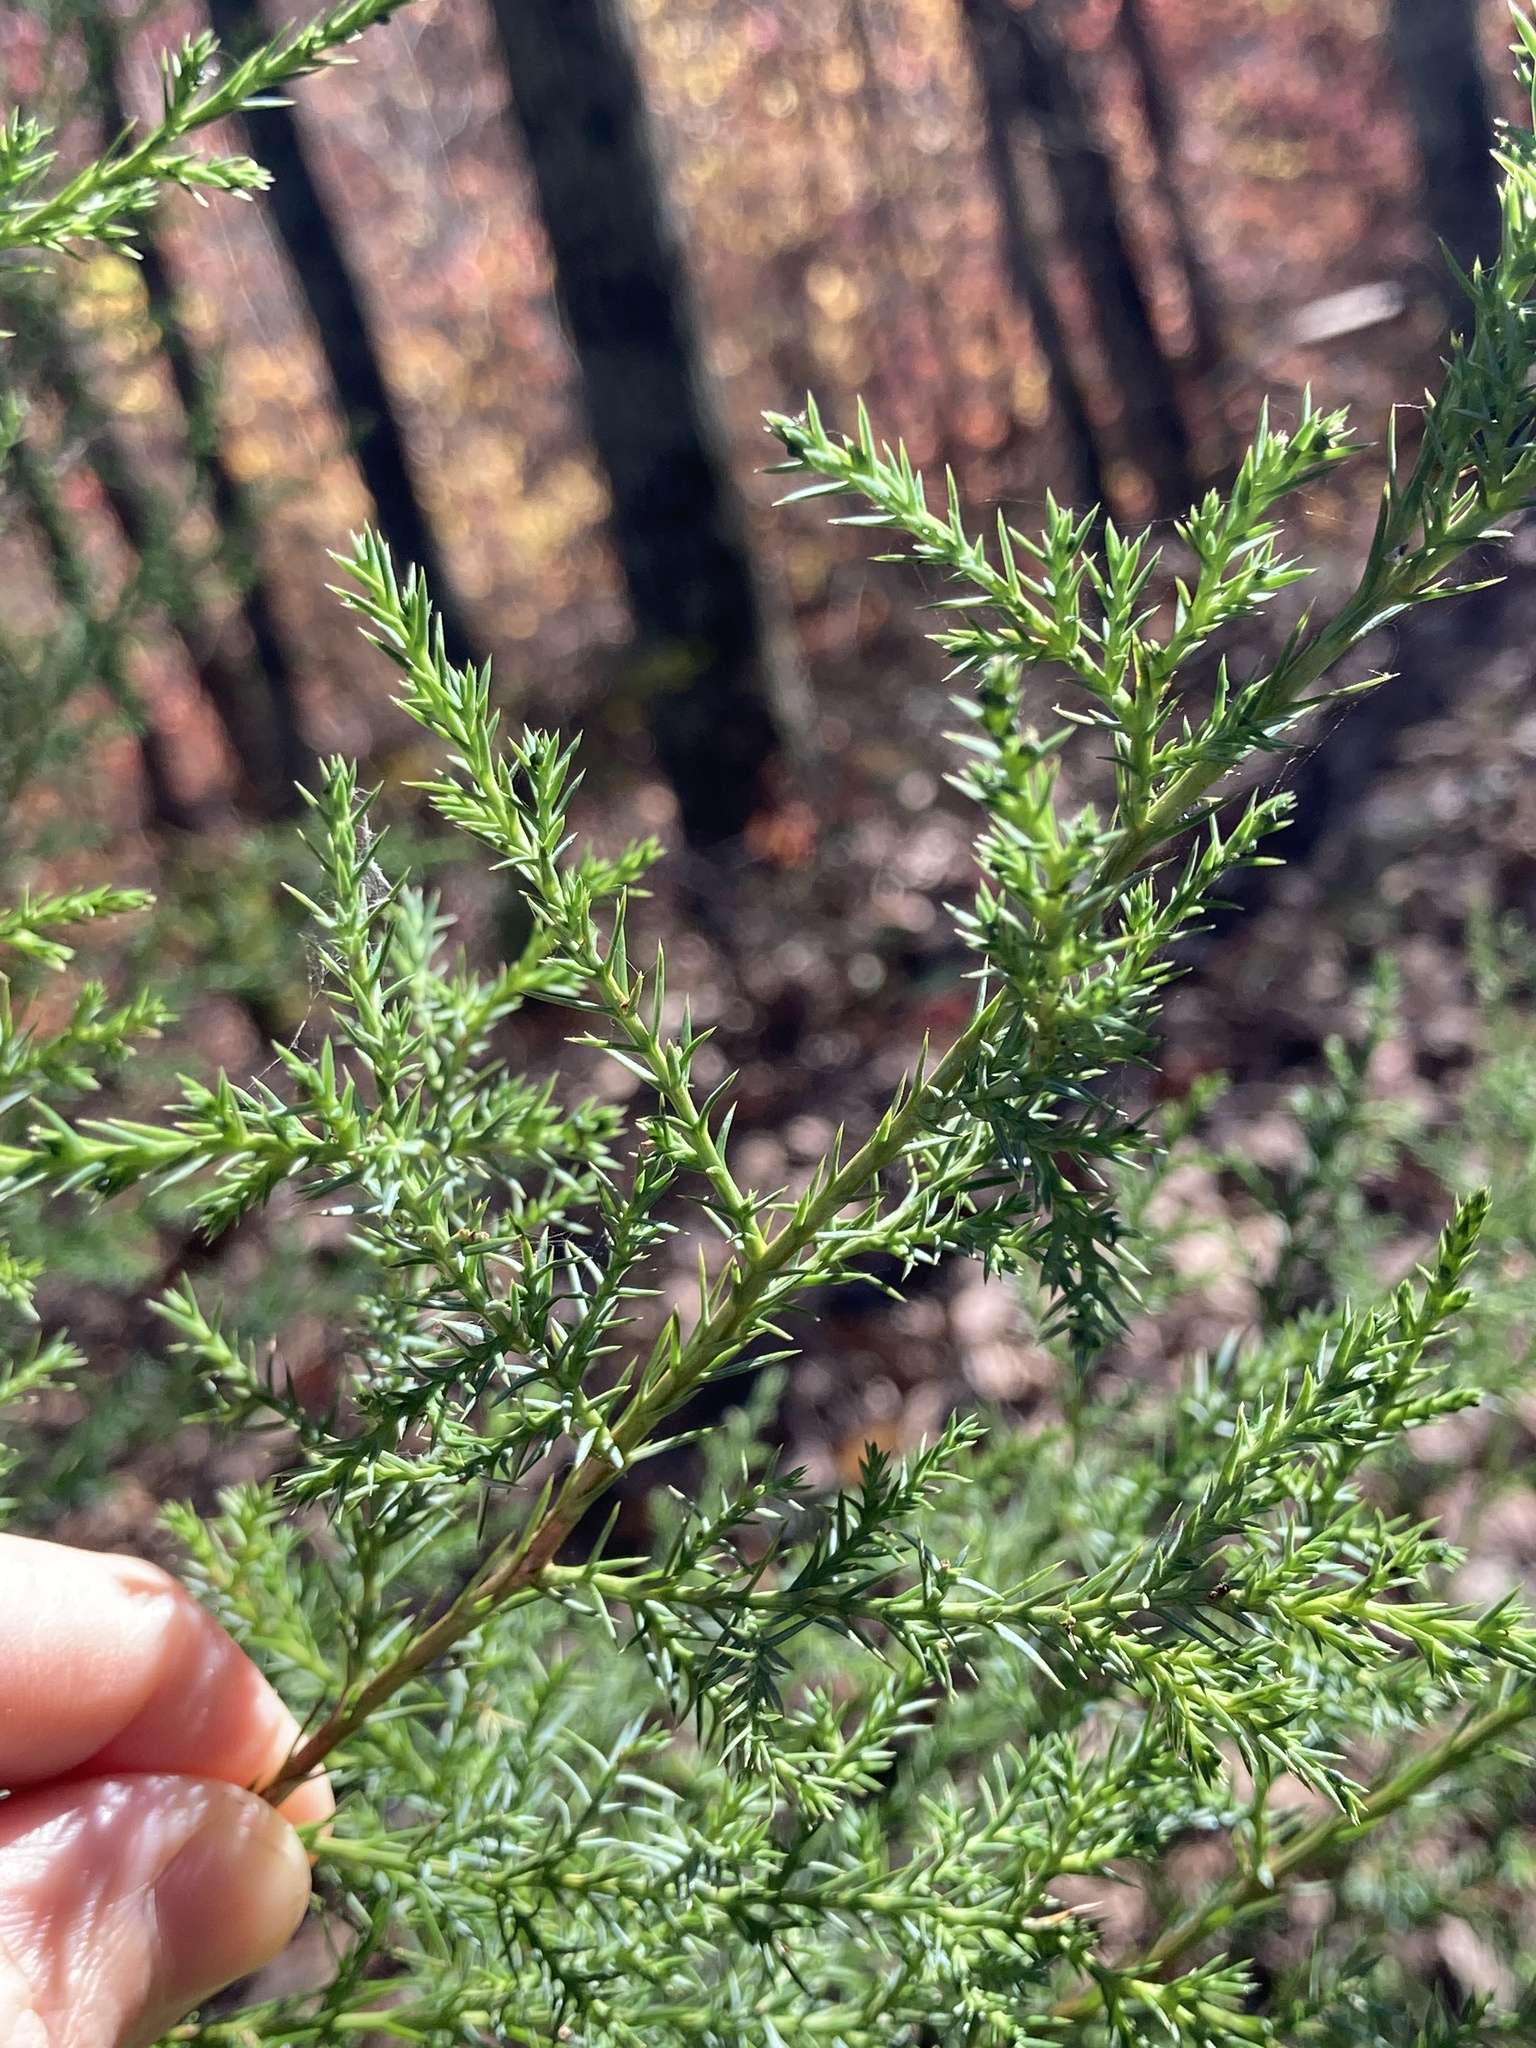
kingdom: Plantae
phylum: Tracheophyta
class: Pinopsida
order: Pinales
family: Cupressaceae
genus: Juniperus
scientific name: Juniperus virginiana
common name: Red juniper
